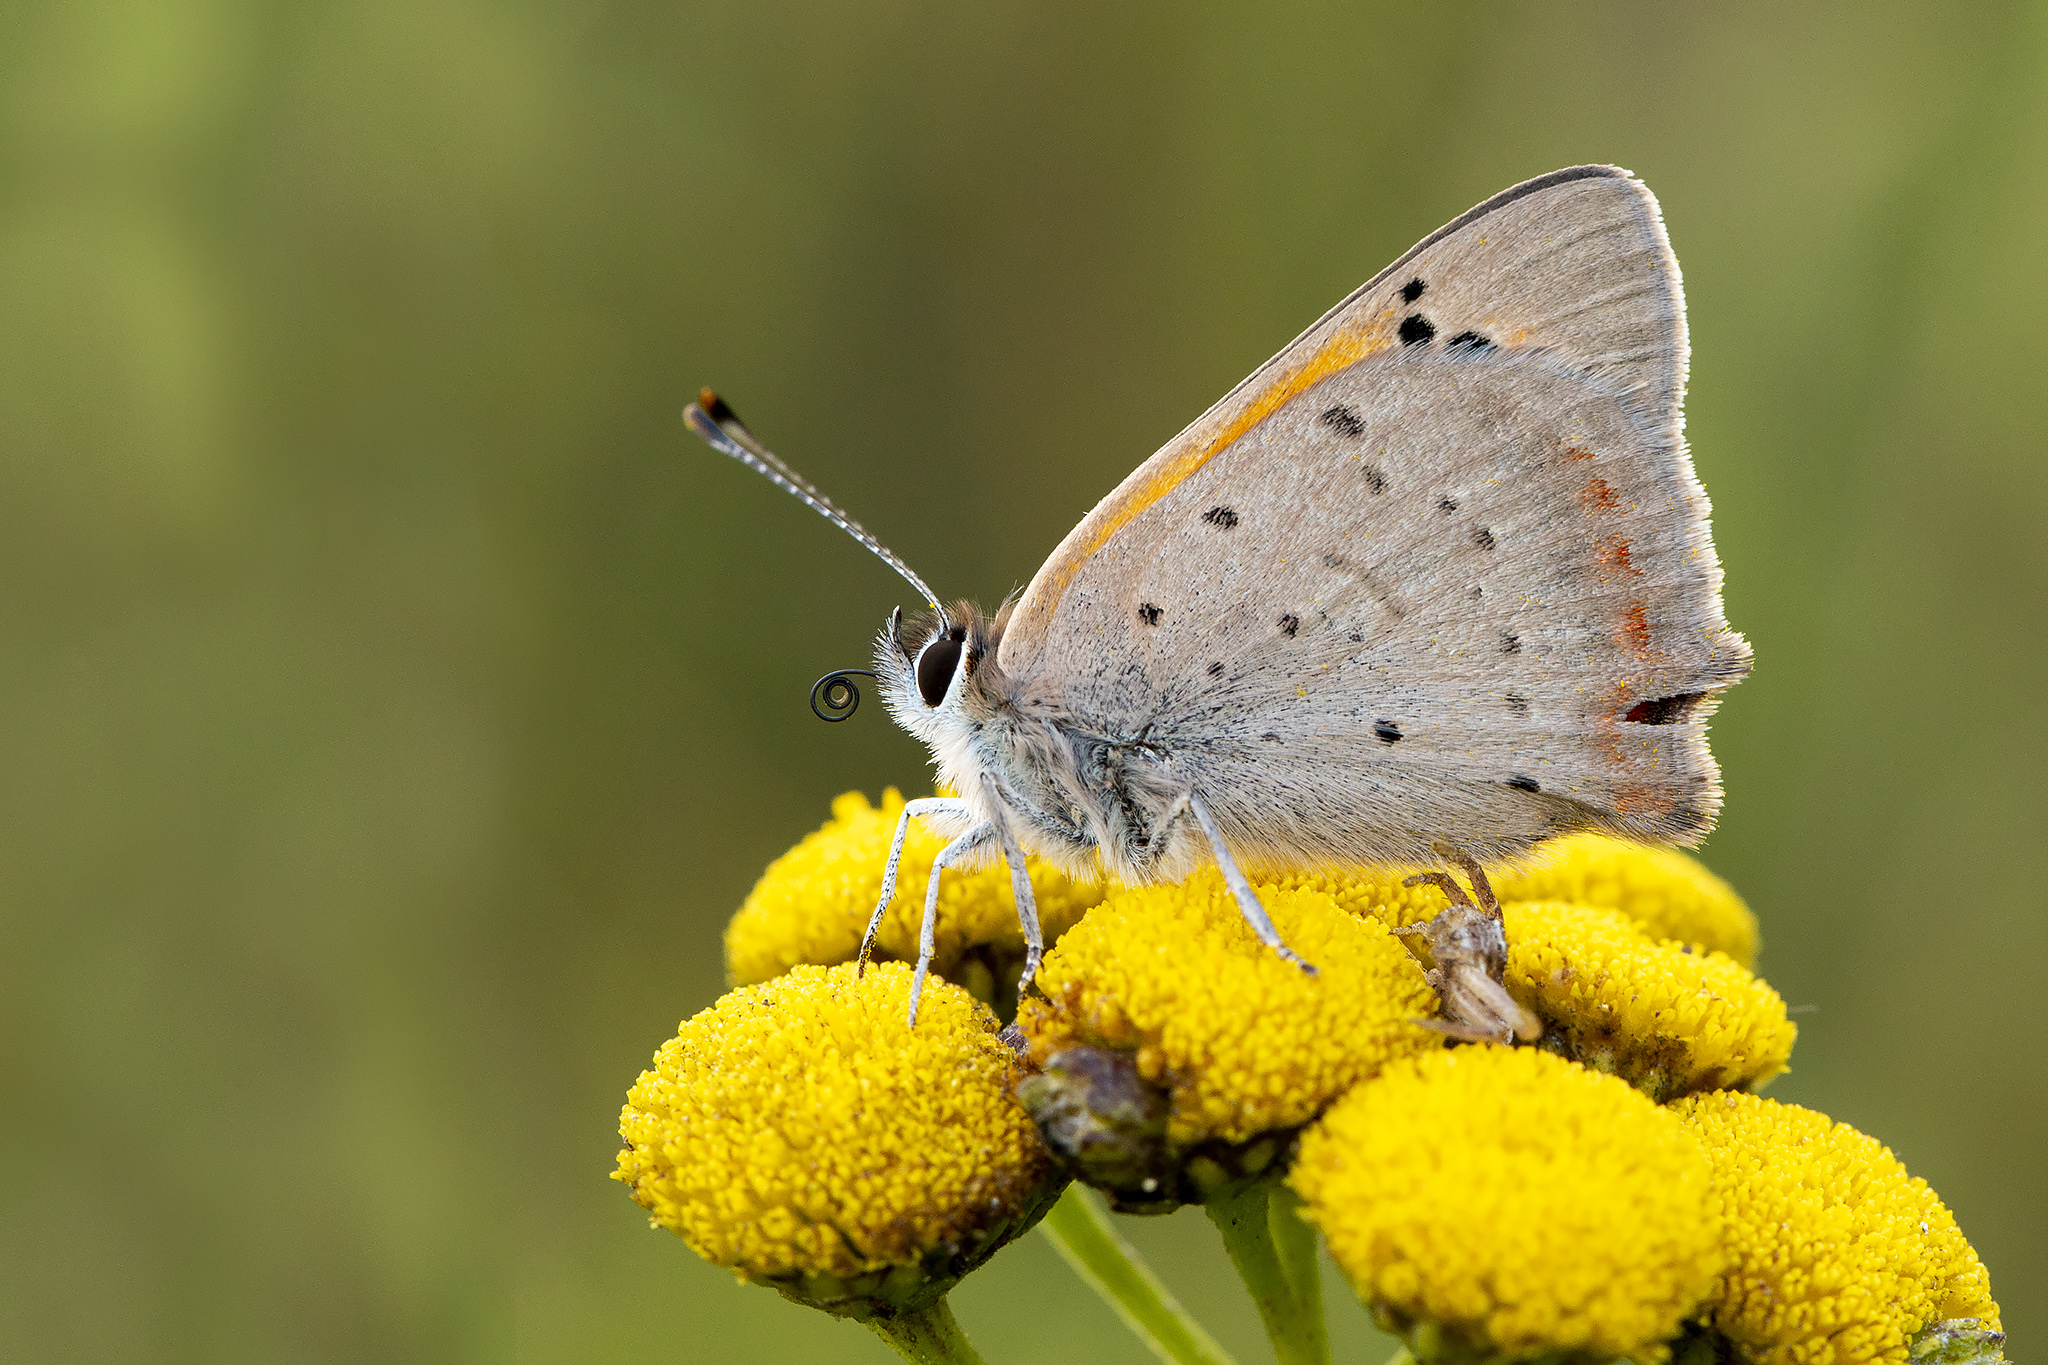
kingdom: Animalia
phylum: Arthropoda
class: Insecta
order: Lepidoptera
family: Lycaenidae
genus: Lycaena
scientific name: Lycaena phlaeas
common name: Small copper
